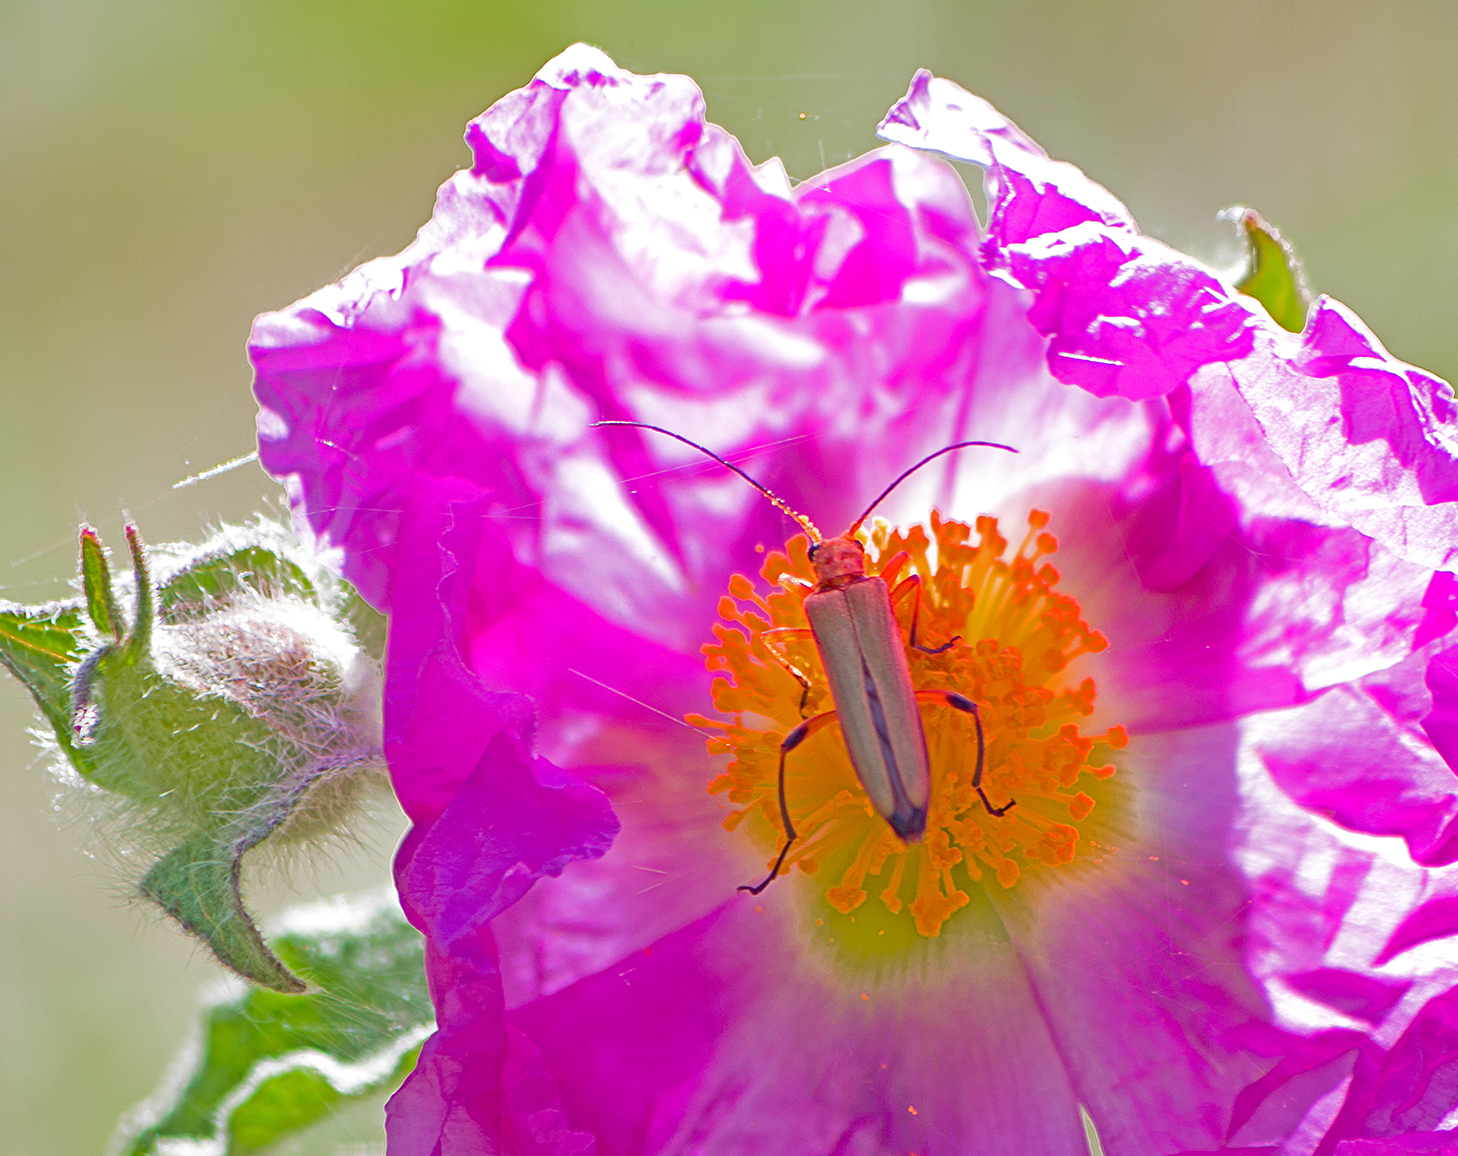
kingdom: Animalia
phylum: Arthropoda
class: Insecta
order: Coleoptera
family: Oedemeridae
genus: Oedemera
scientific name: Oedemera podagrariae
